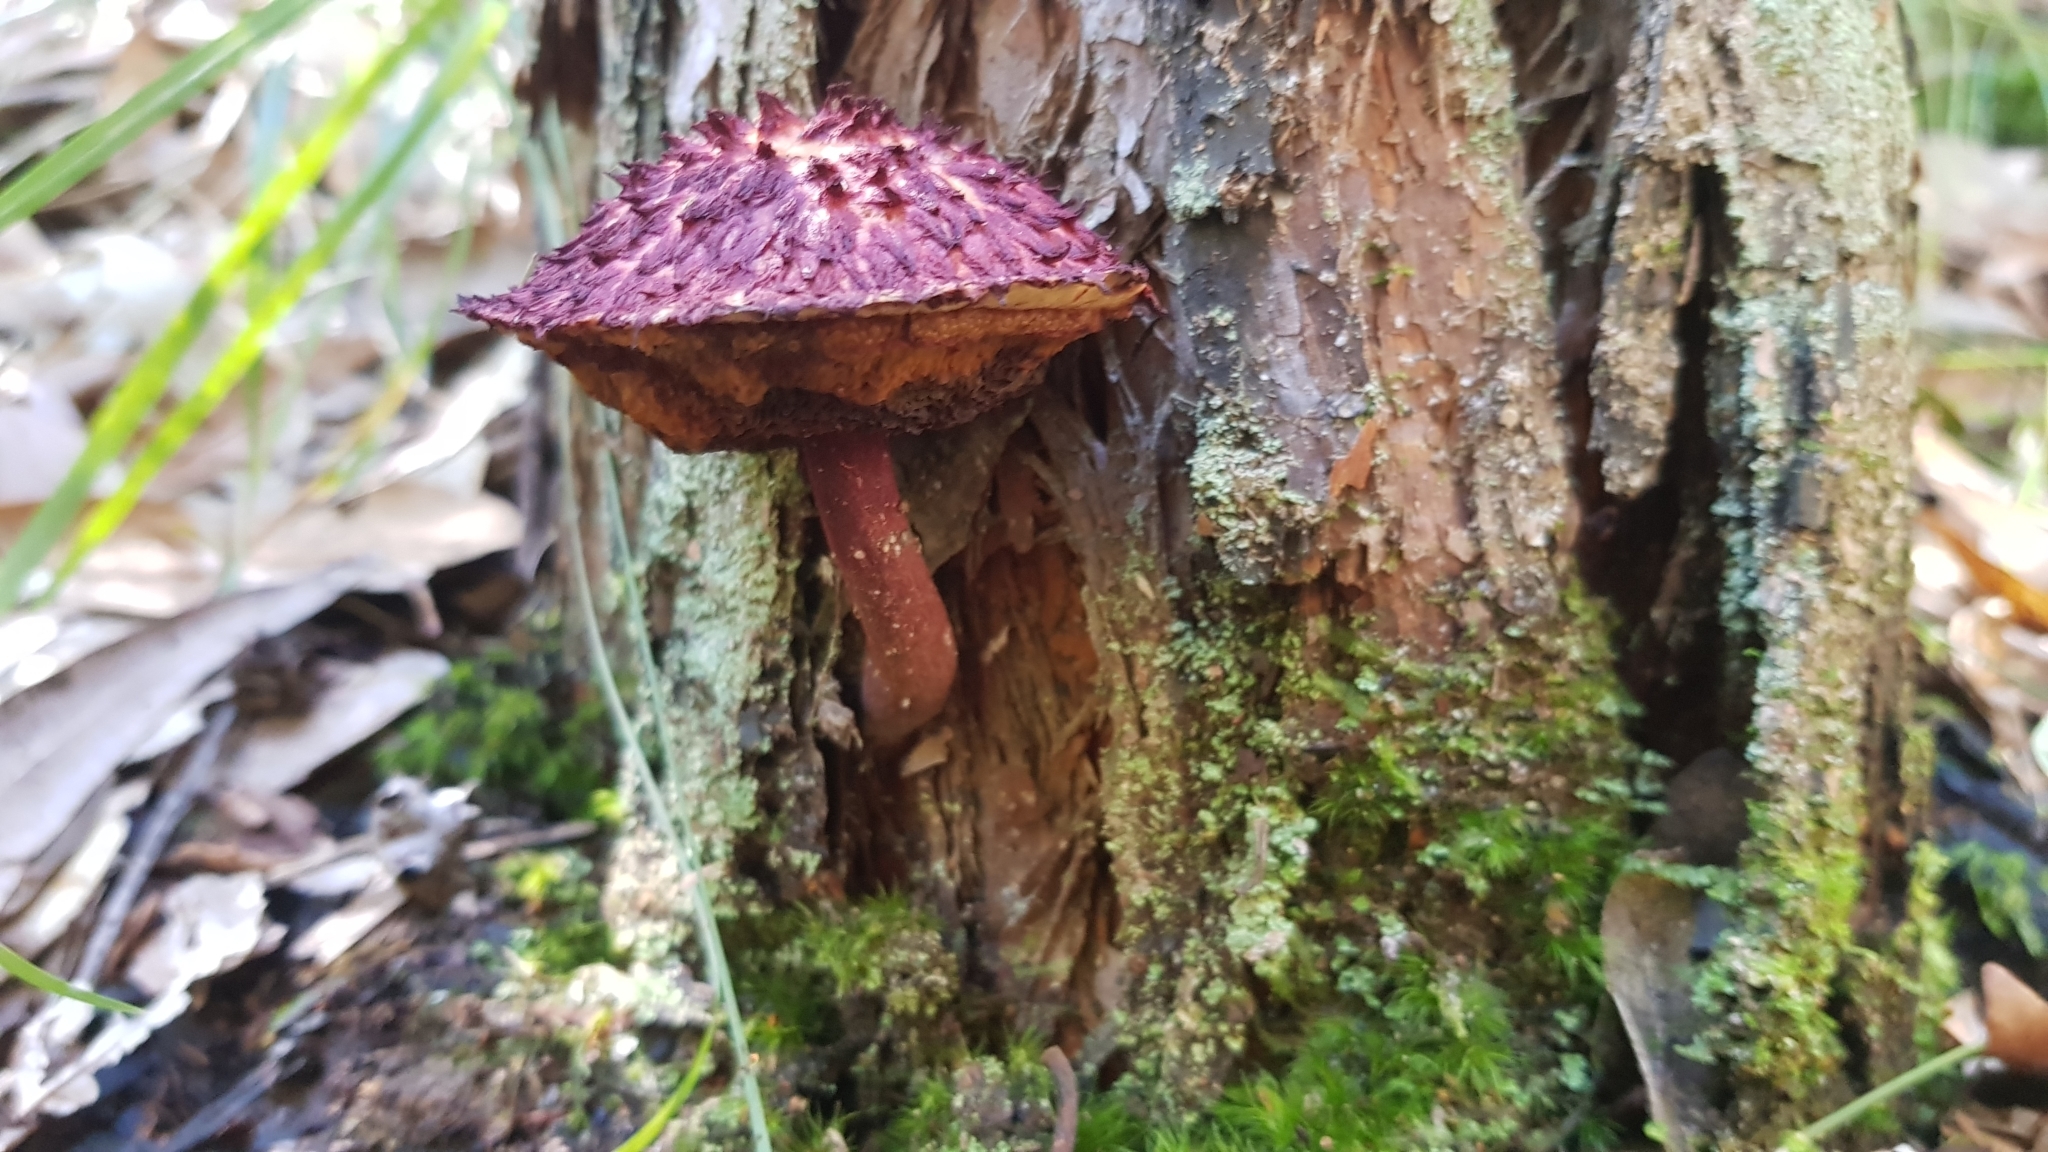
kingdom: Fungi
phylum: Basidiomycota
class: Agaricomycetes
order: Boletales
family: Boletaceae
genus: Boletellus
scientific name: Boletellus emodensis
